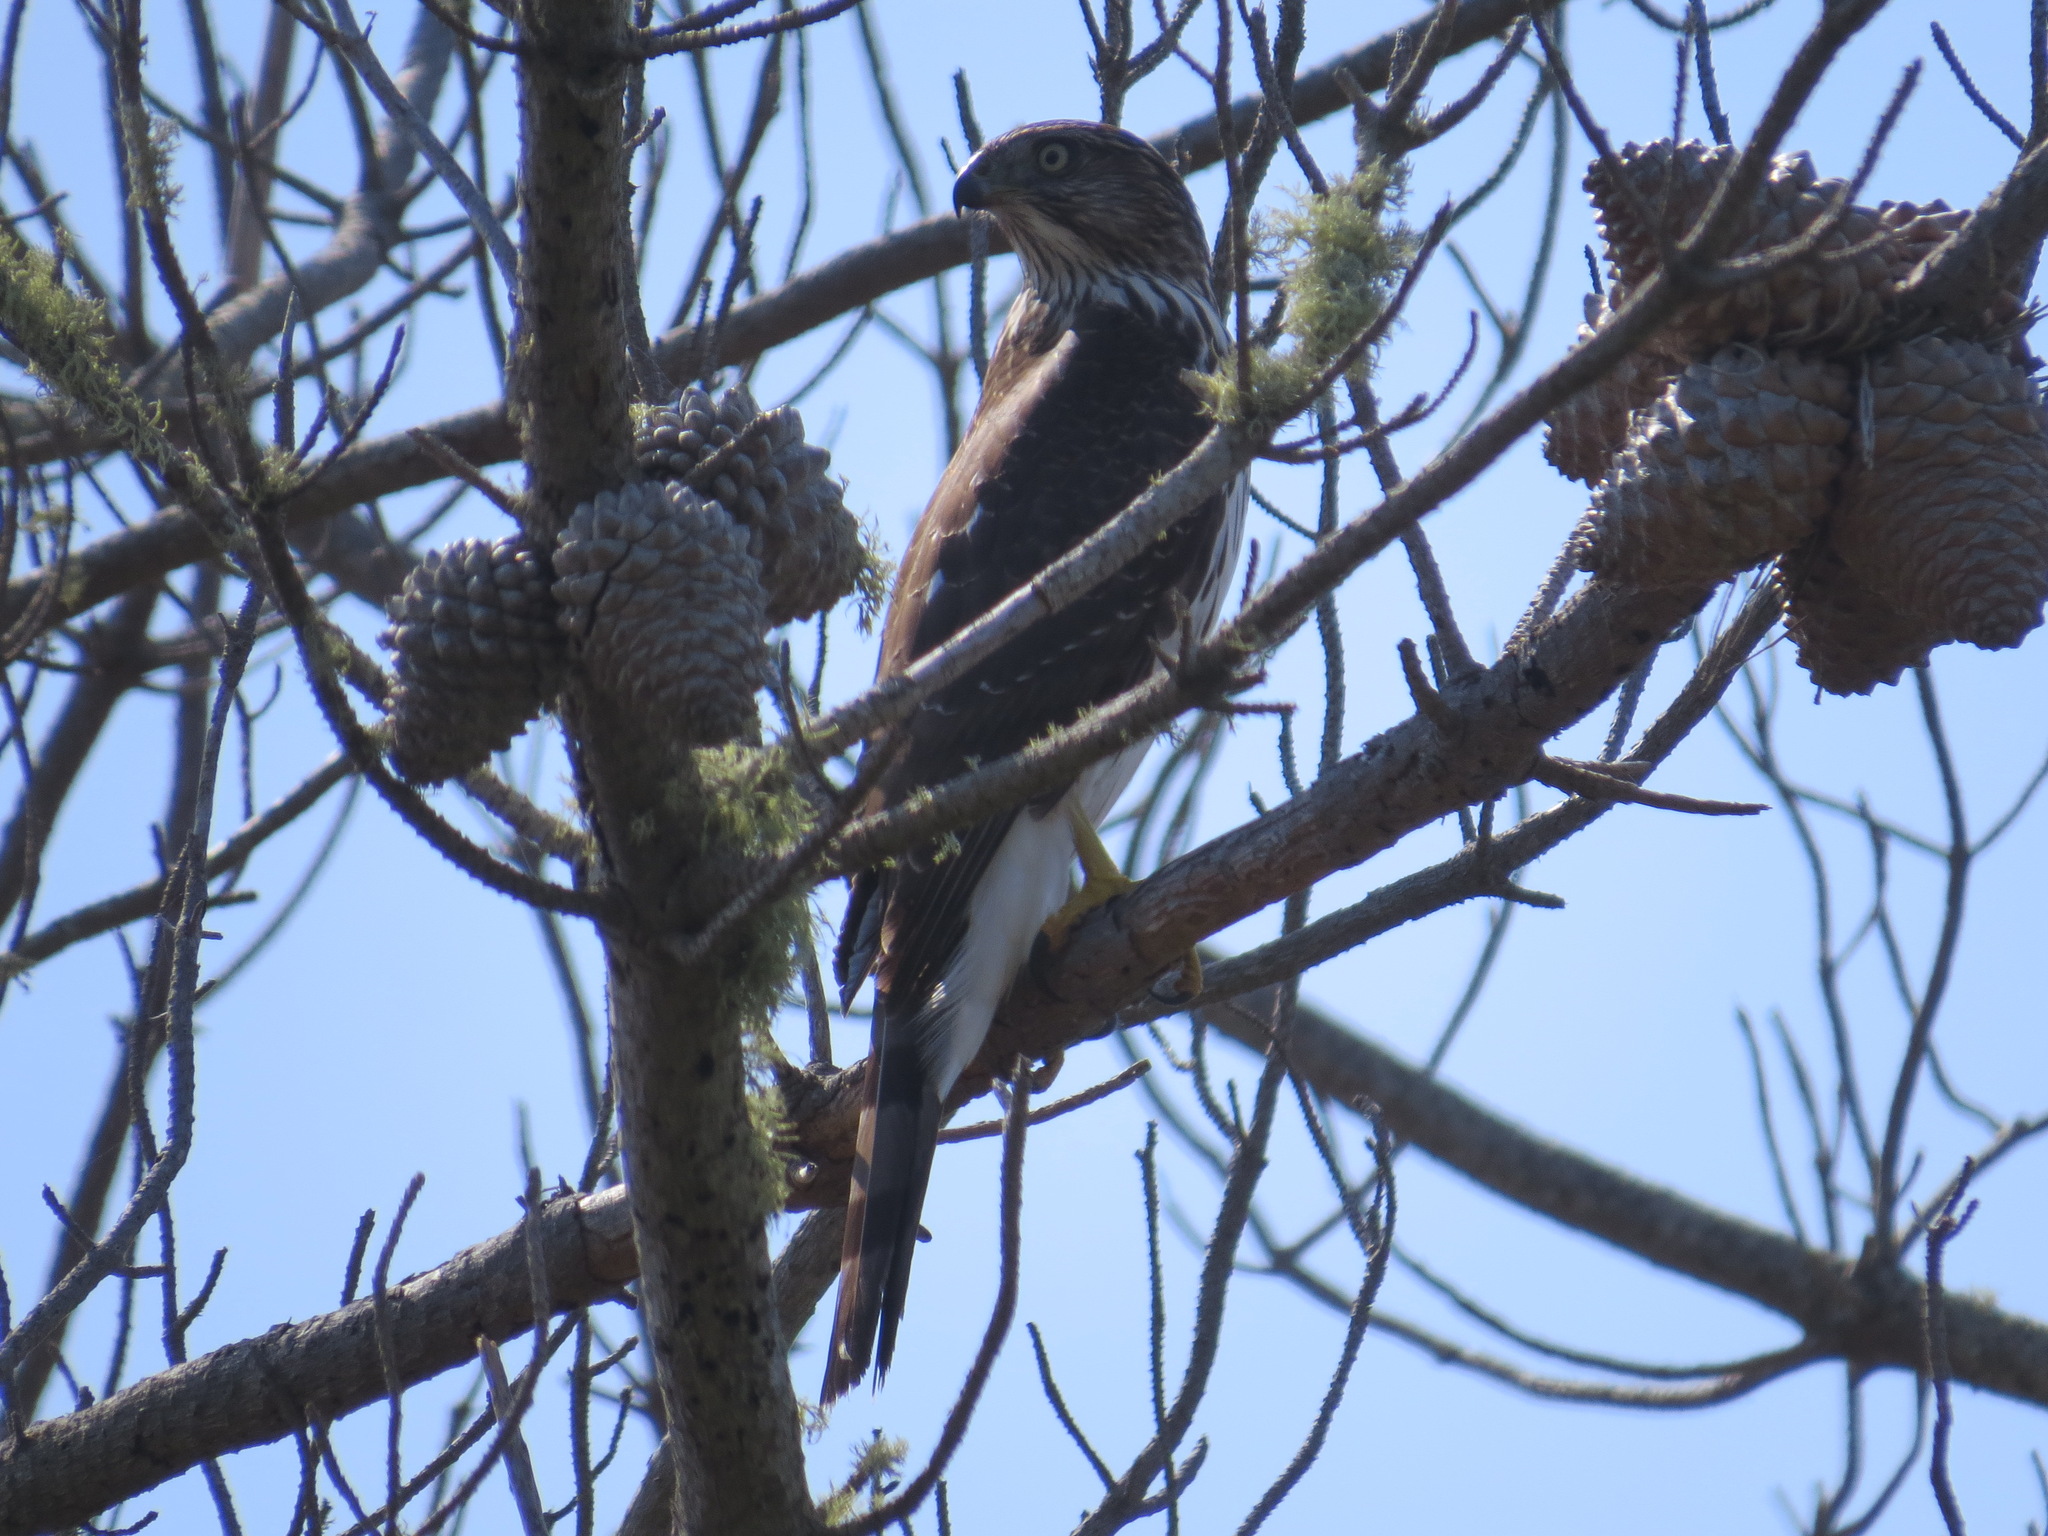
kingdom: Animalia
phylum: Chordata
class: Aves
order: Accipitriformes
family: Accipitridae
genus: Accipiter
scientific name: Accipiter cooperii
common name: Cooper's hawk
